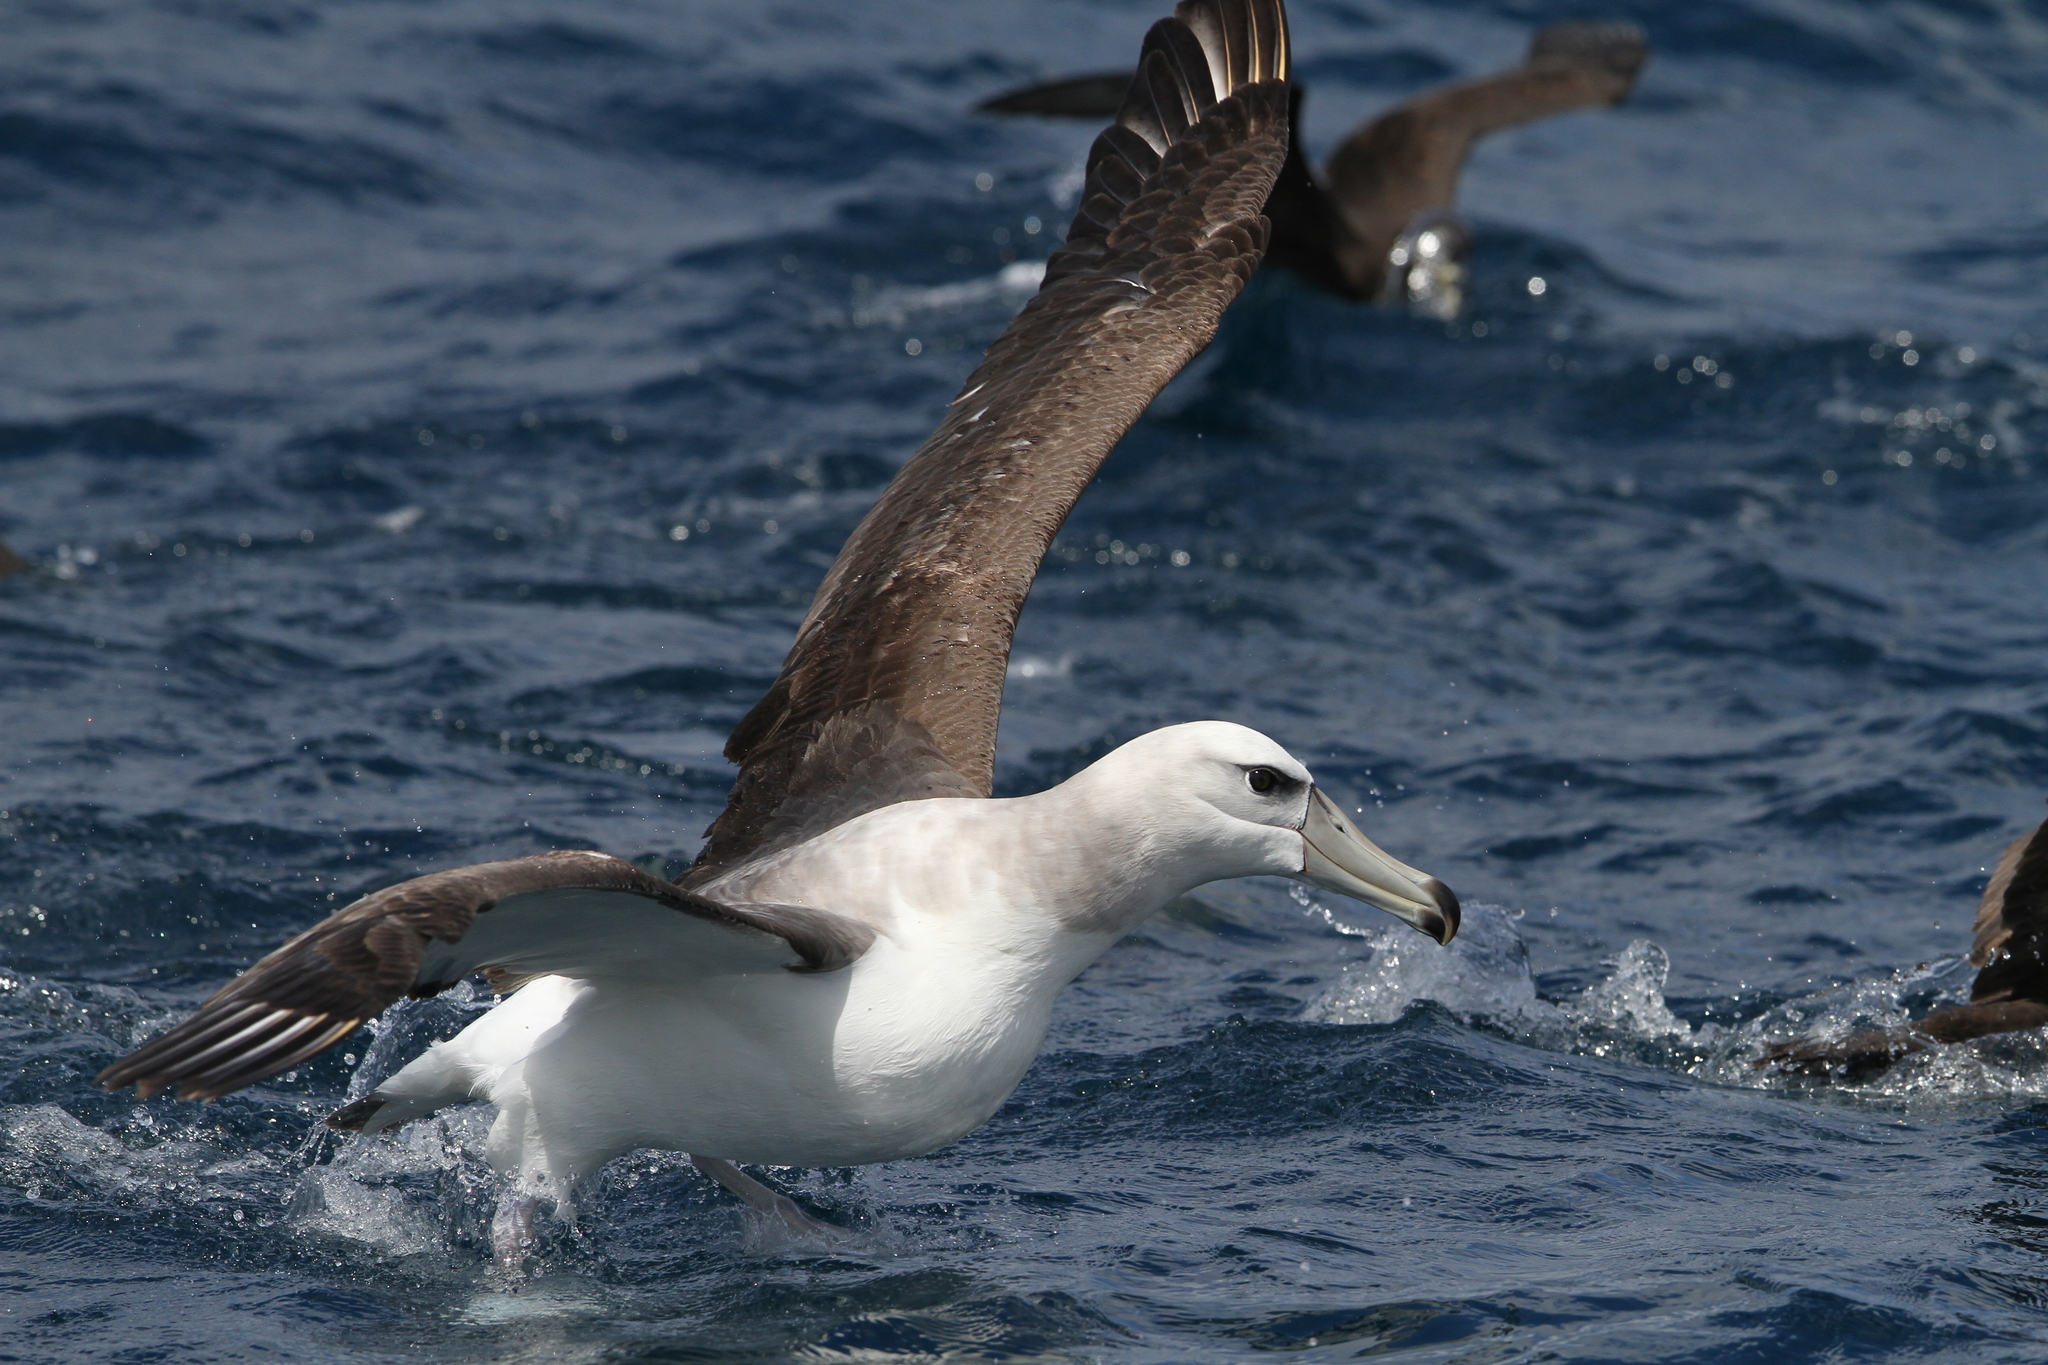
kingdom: Animalia
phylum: Chordata
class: Aves
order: Procellariiformes
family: Diomedeidae
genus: Thalassarche
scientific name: Thalassarche cauta
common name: Shy albatross
